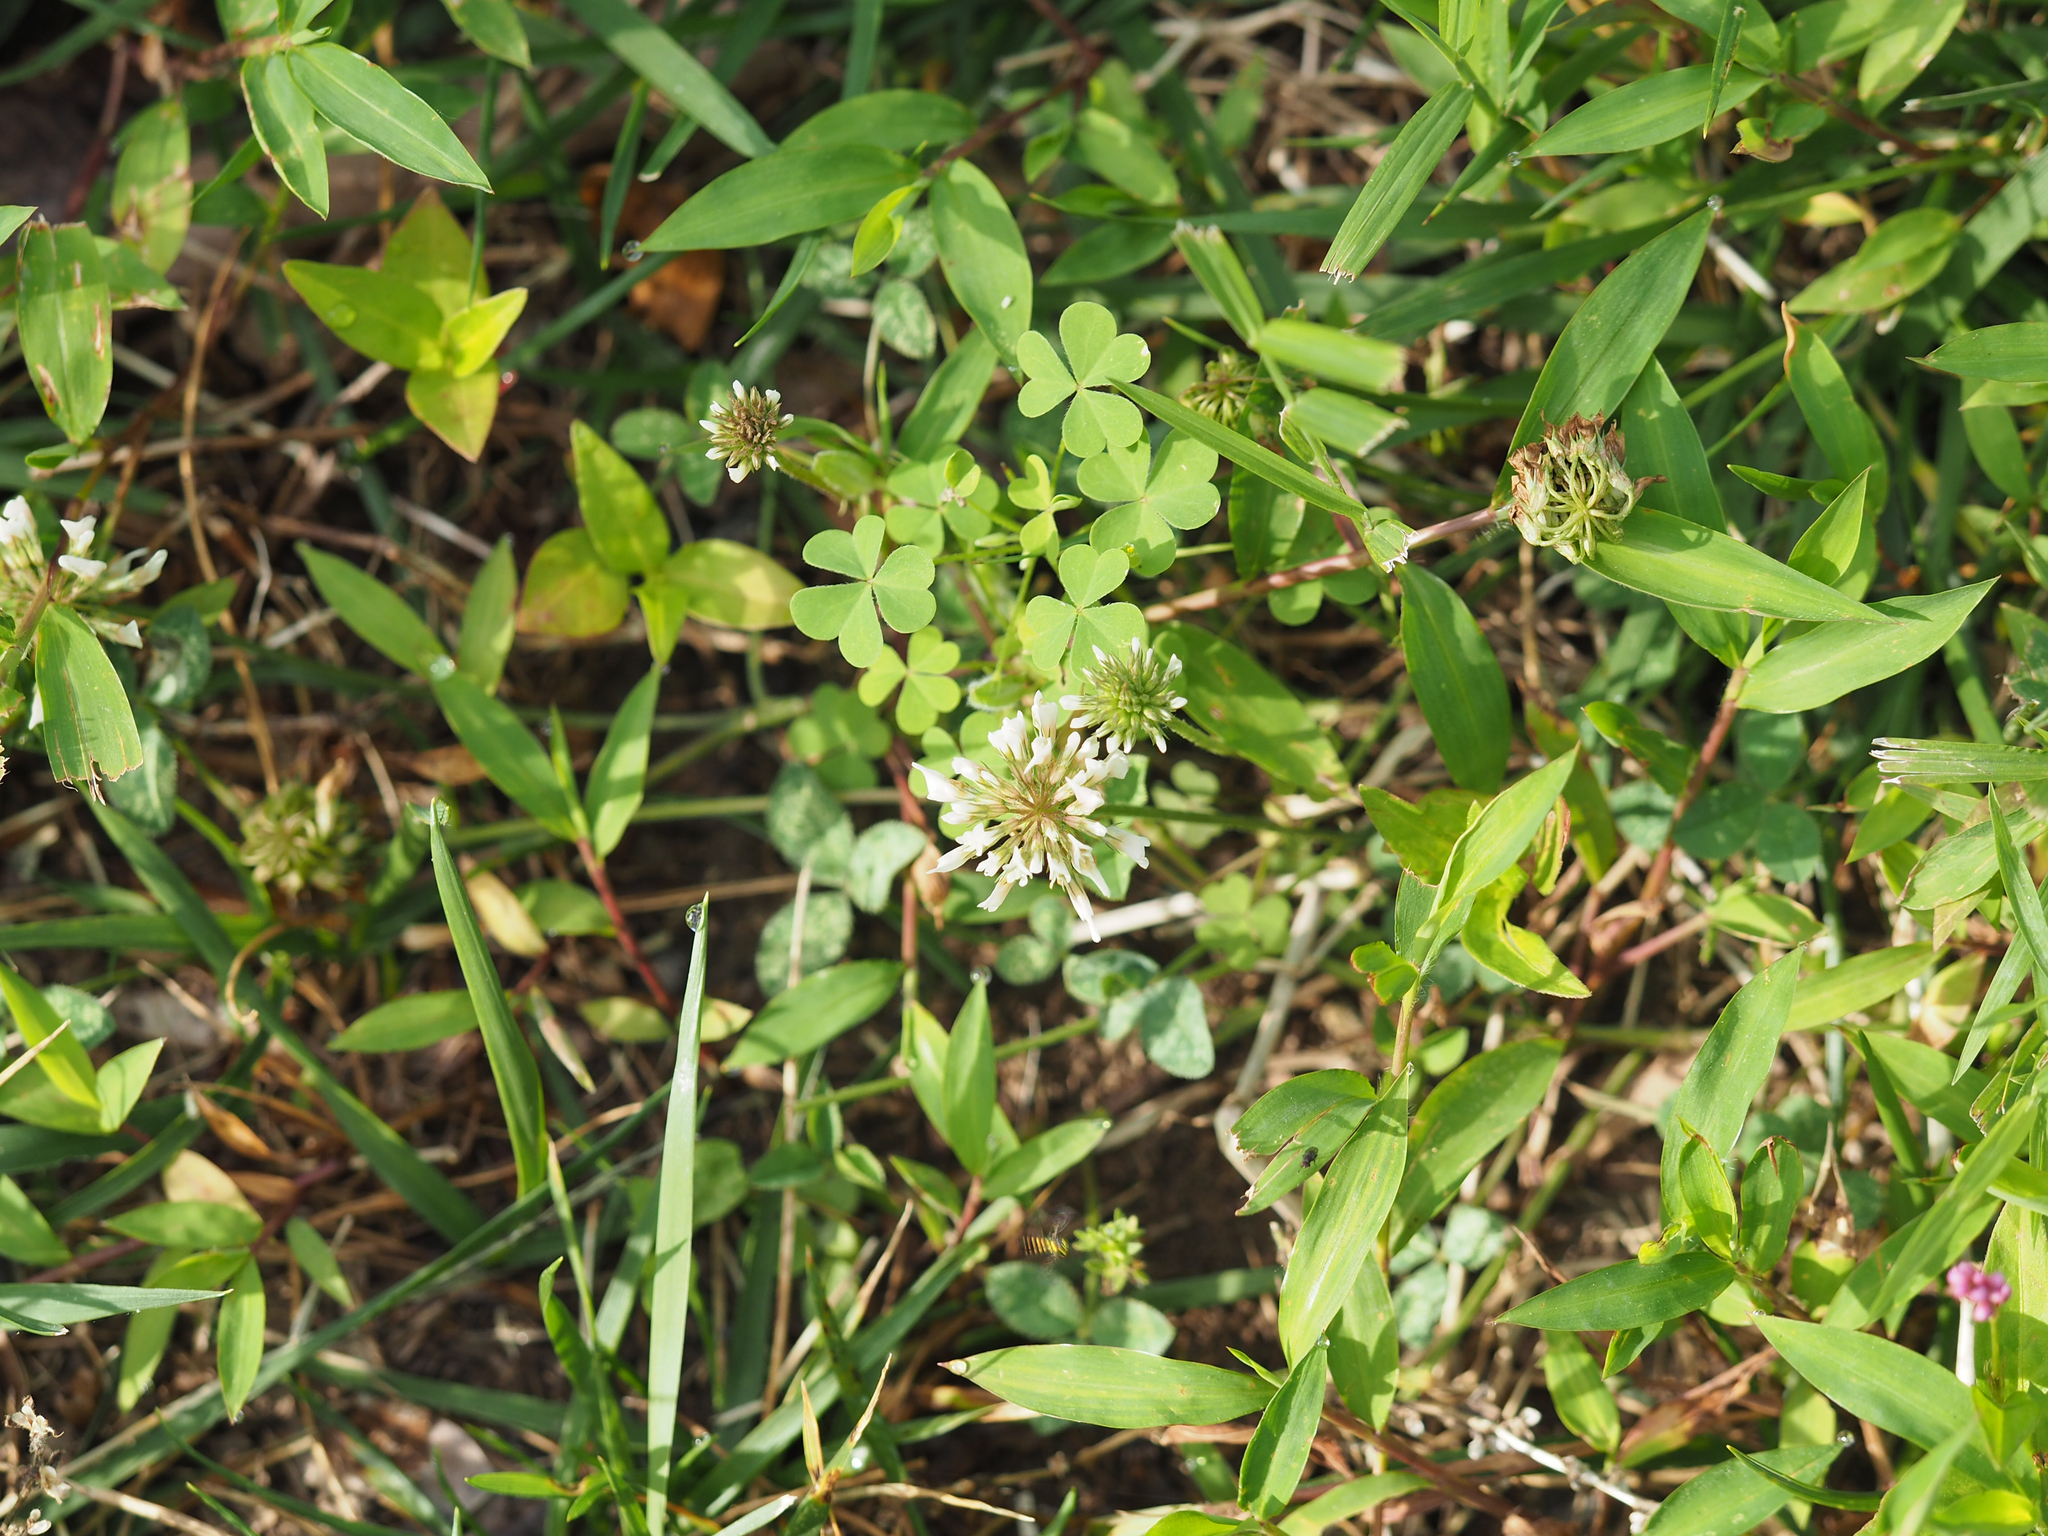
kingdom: Plantae
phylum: Tracheophyta
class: Magnoliopsida
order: Fabales
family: Fabaceae
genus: Trifolium
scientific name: Trifolium repens
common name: White clover
